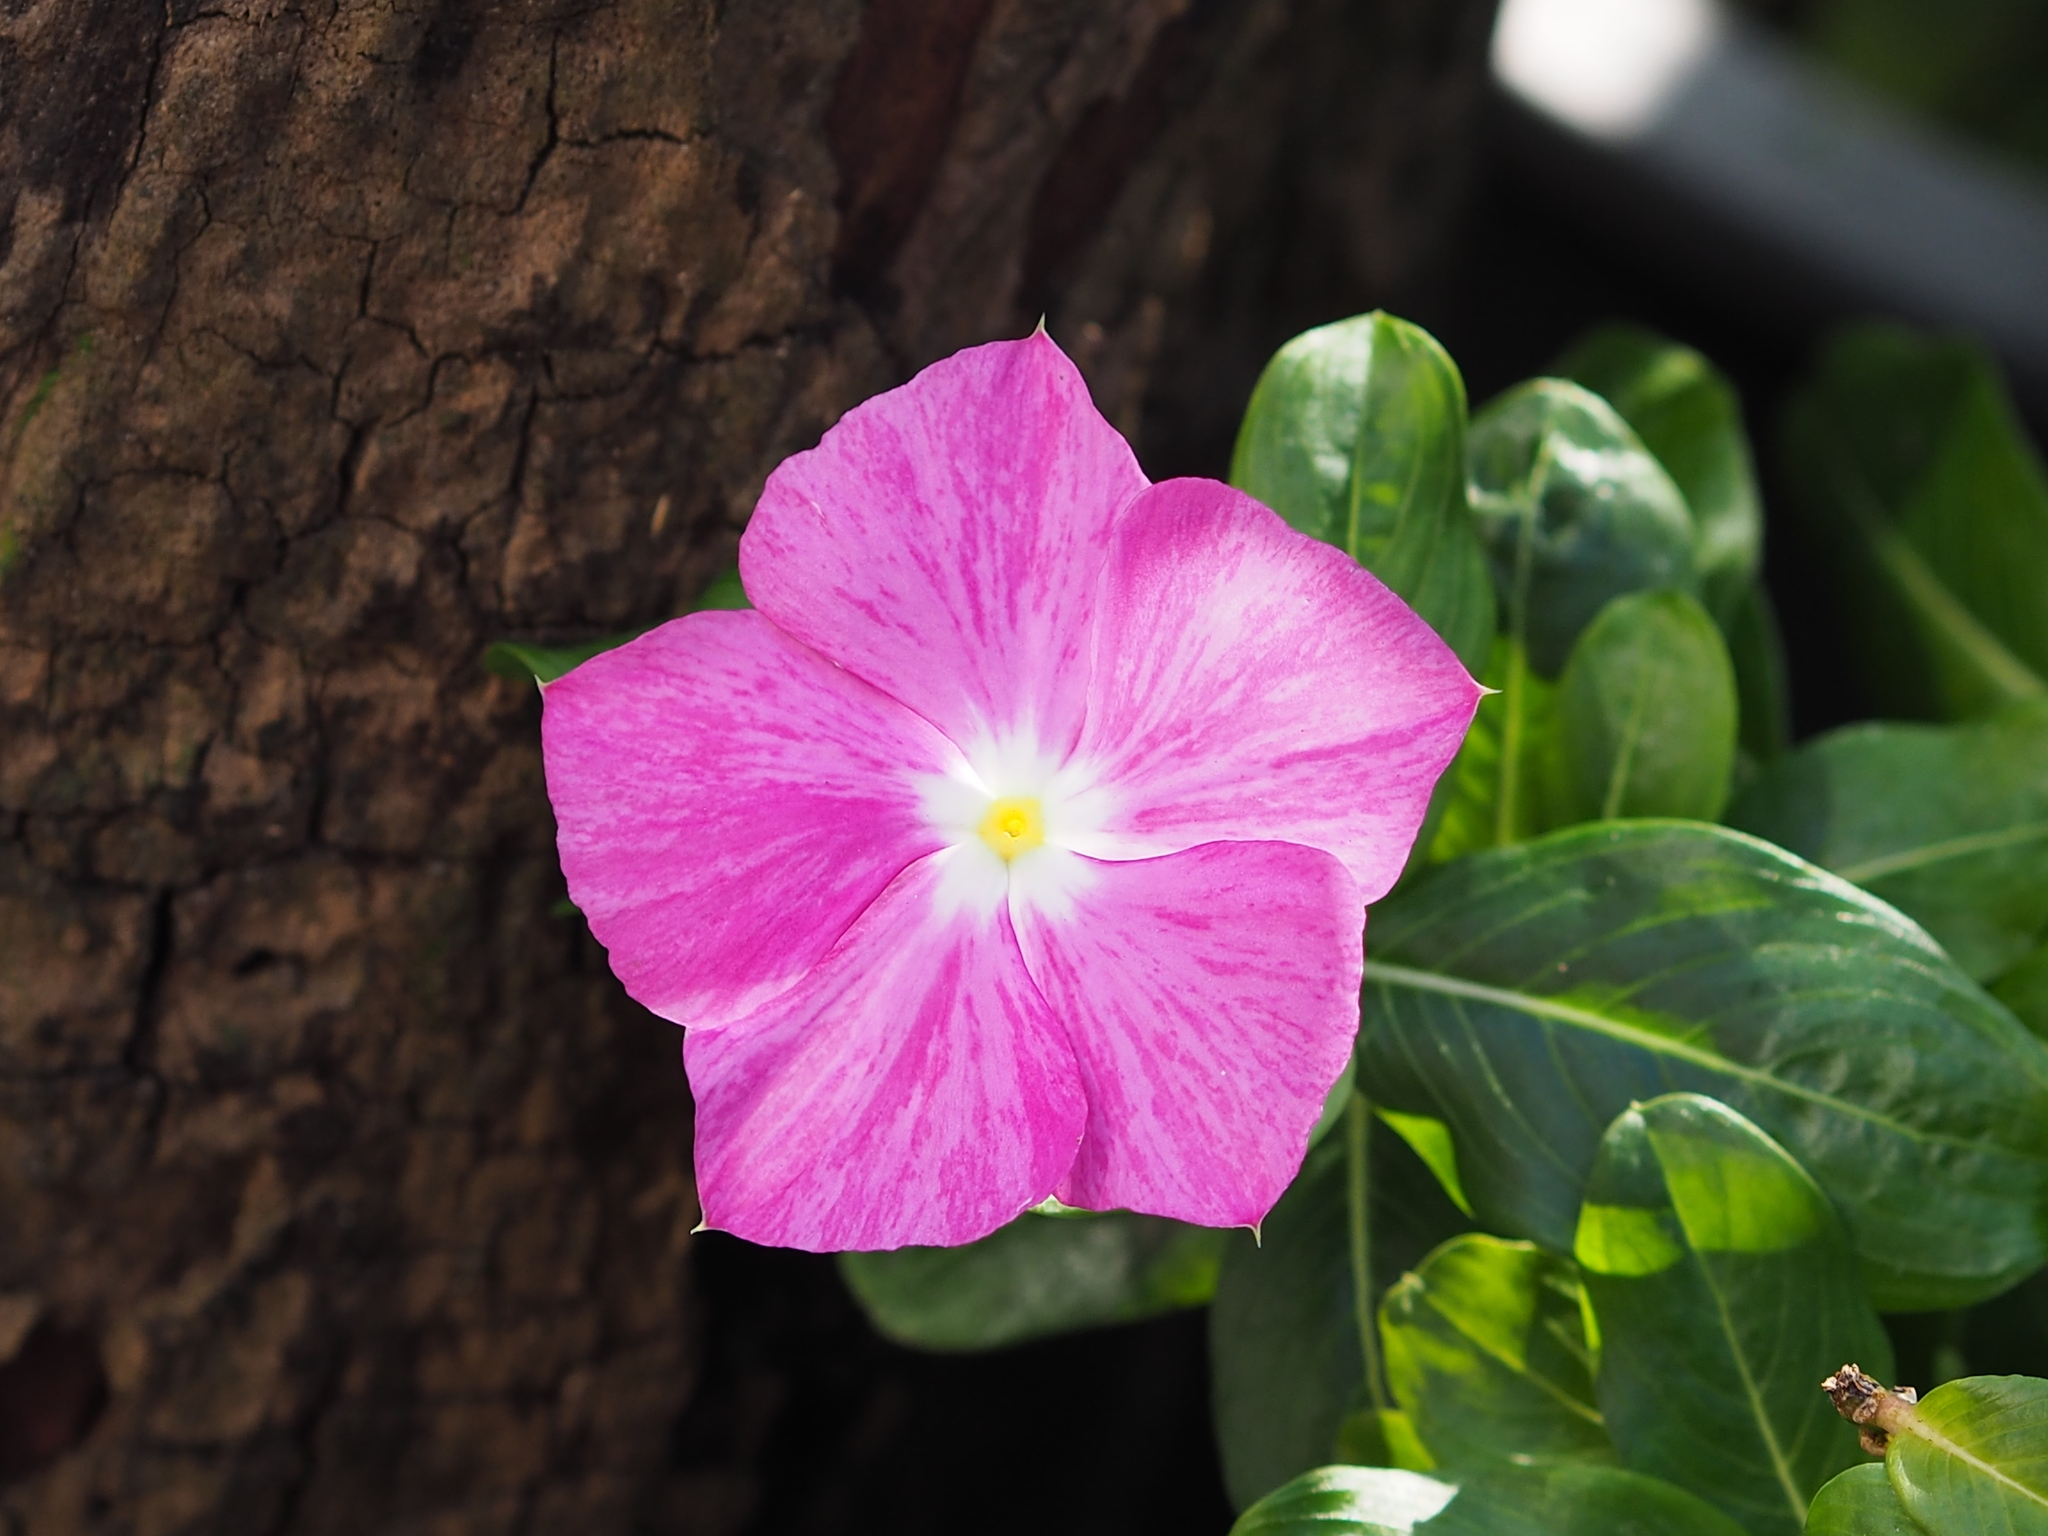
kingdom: Plantae
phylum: Tracheophyta
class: Magnoliopsida
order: Gentianales
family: Apocynaceae
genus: Catharanthus
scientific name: Catharanthus roseus
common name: Madagascar periwinkle
